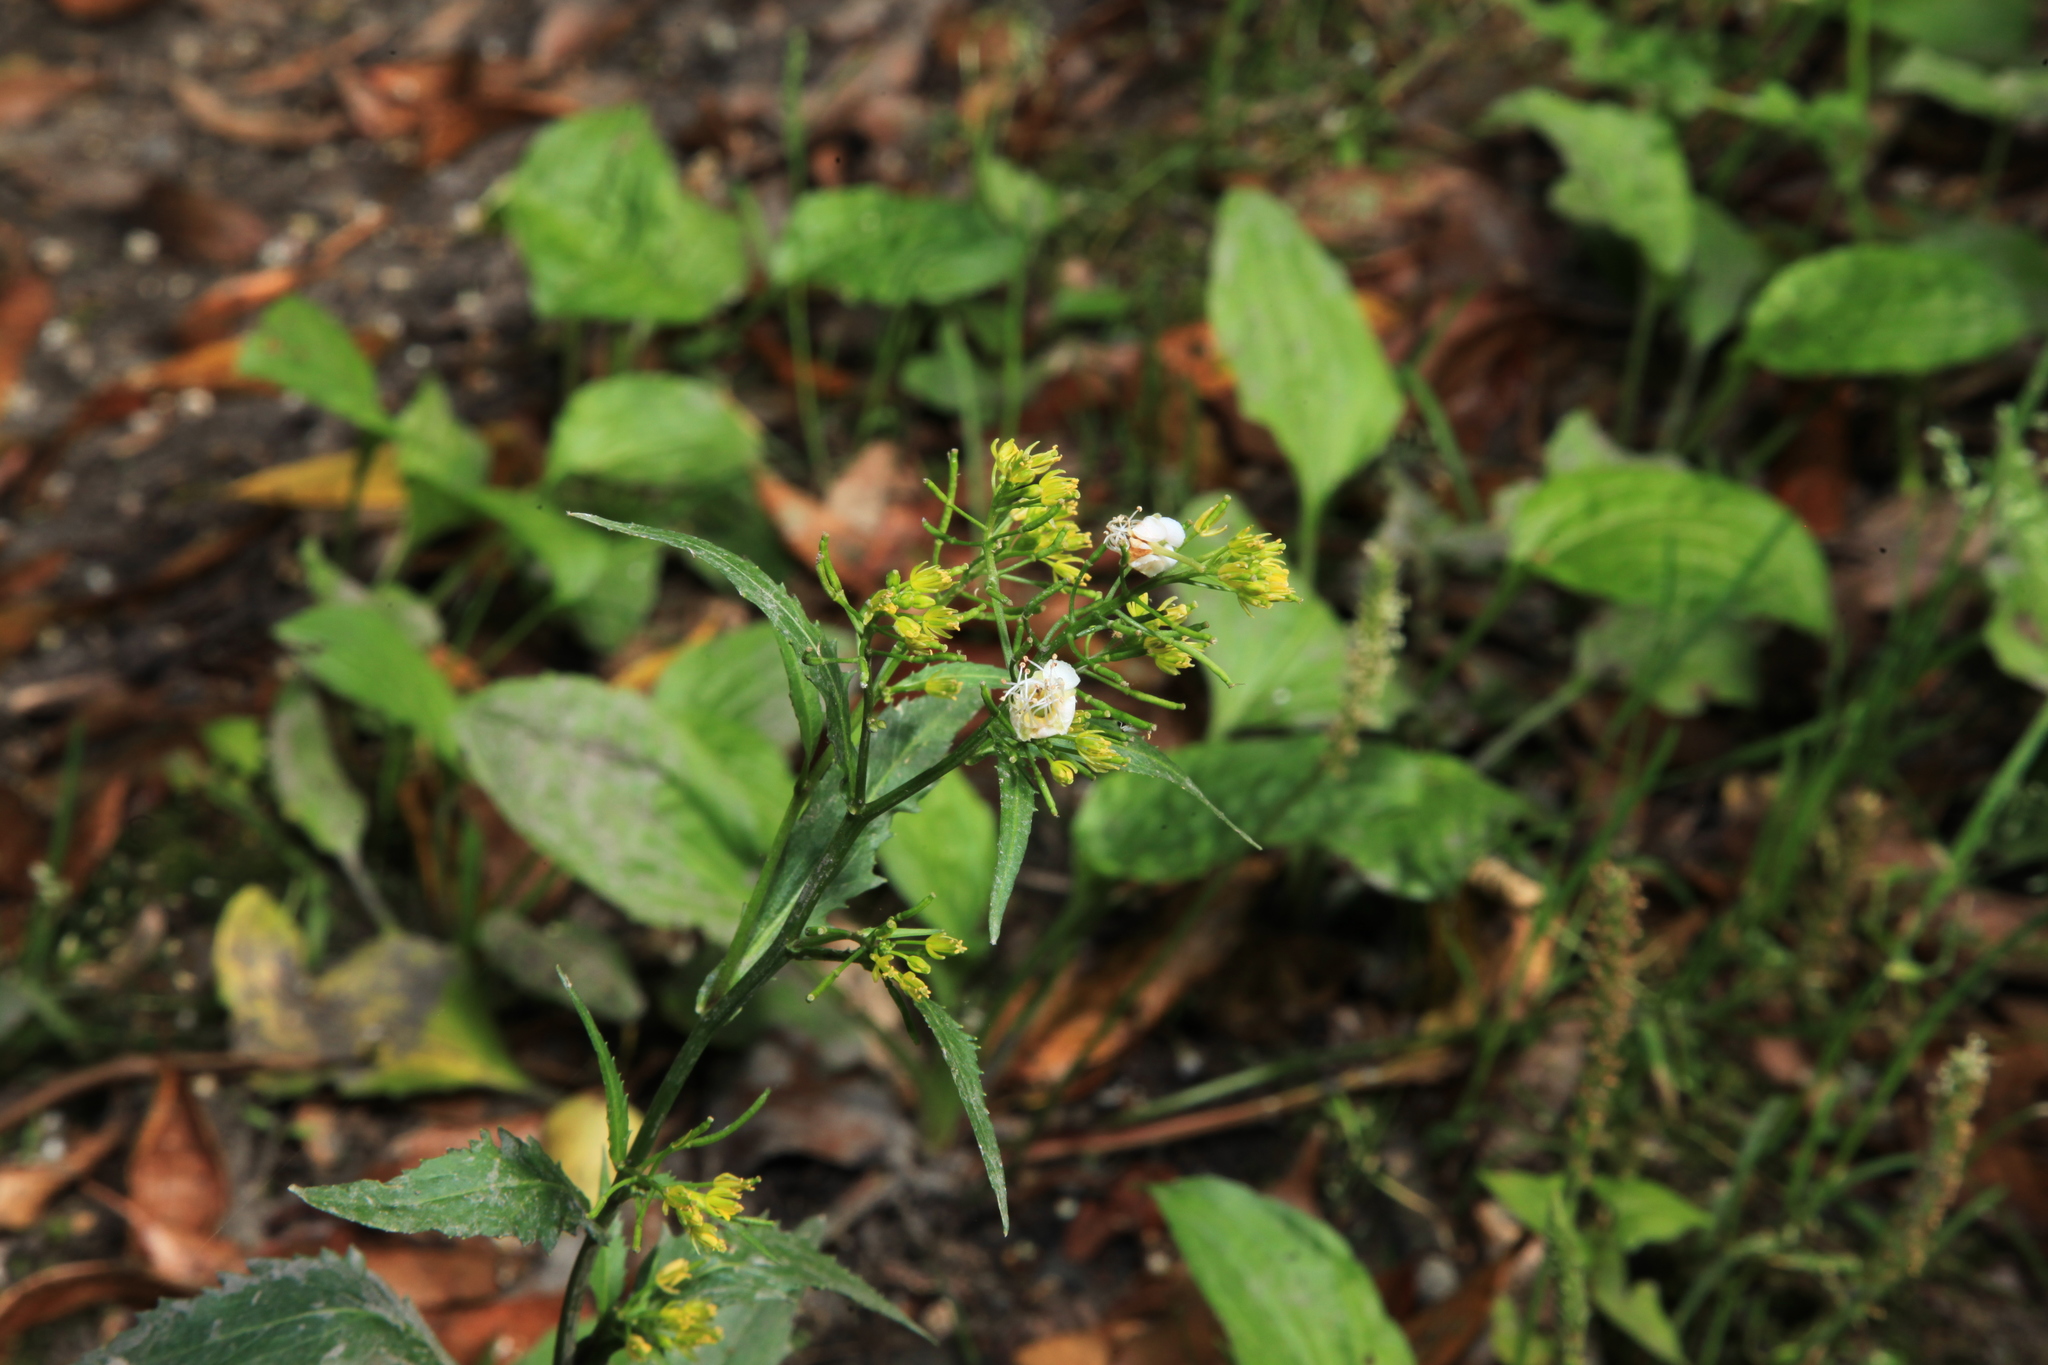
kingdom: Plantae
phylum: Tracheophyta
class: Magnoliopsida
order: Brassicales
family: Brassicaceae
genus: Rorippa
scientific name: Rorippa dubia
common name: Variableleaf yellowcress
